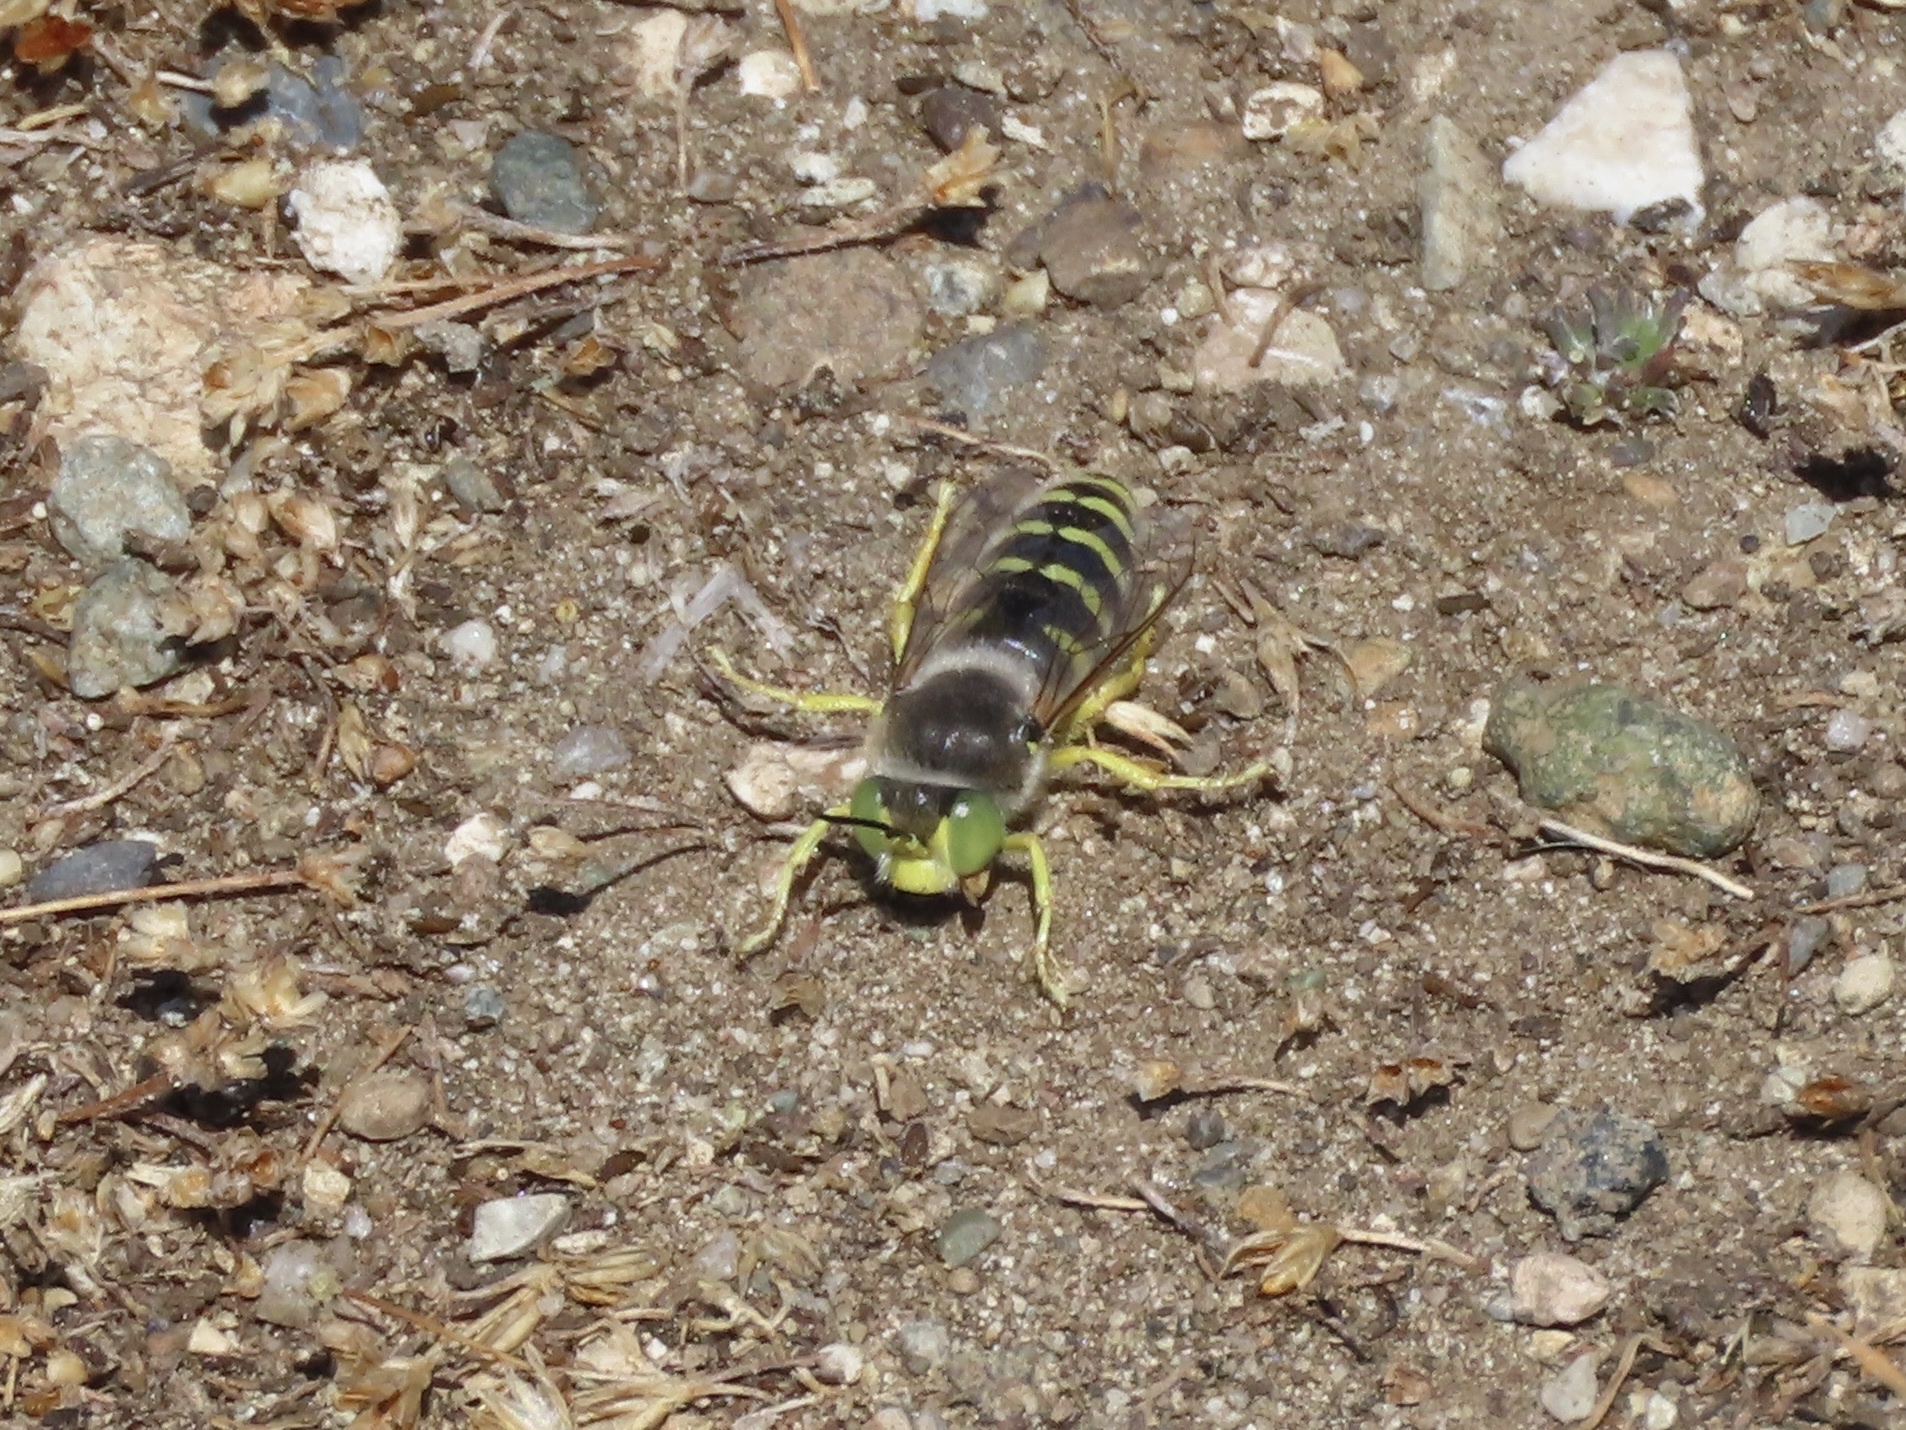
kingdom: Animalia
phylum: Arthropoda
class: Insecta
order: Hymenoptera
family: Crabronidae
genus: Bembix
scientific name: Bembix americana
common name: American sand wasp
